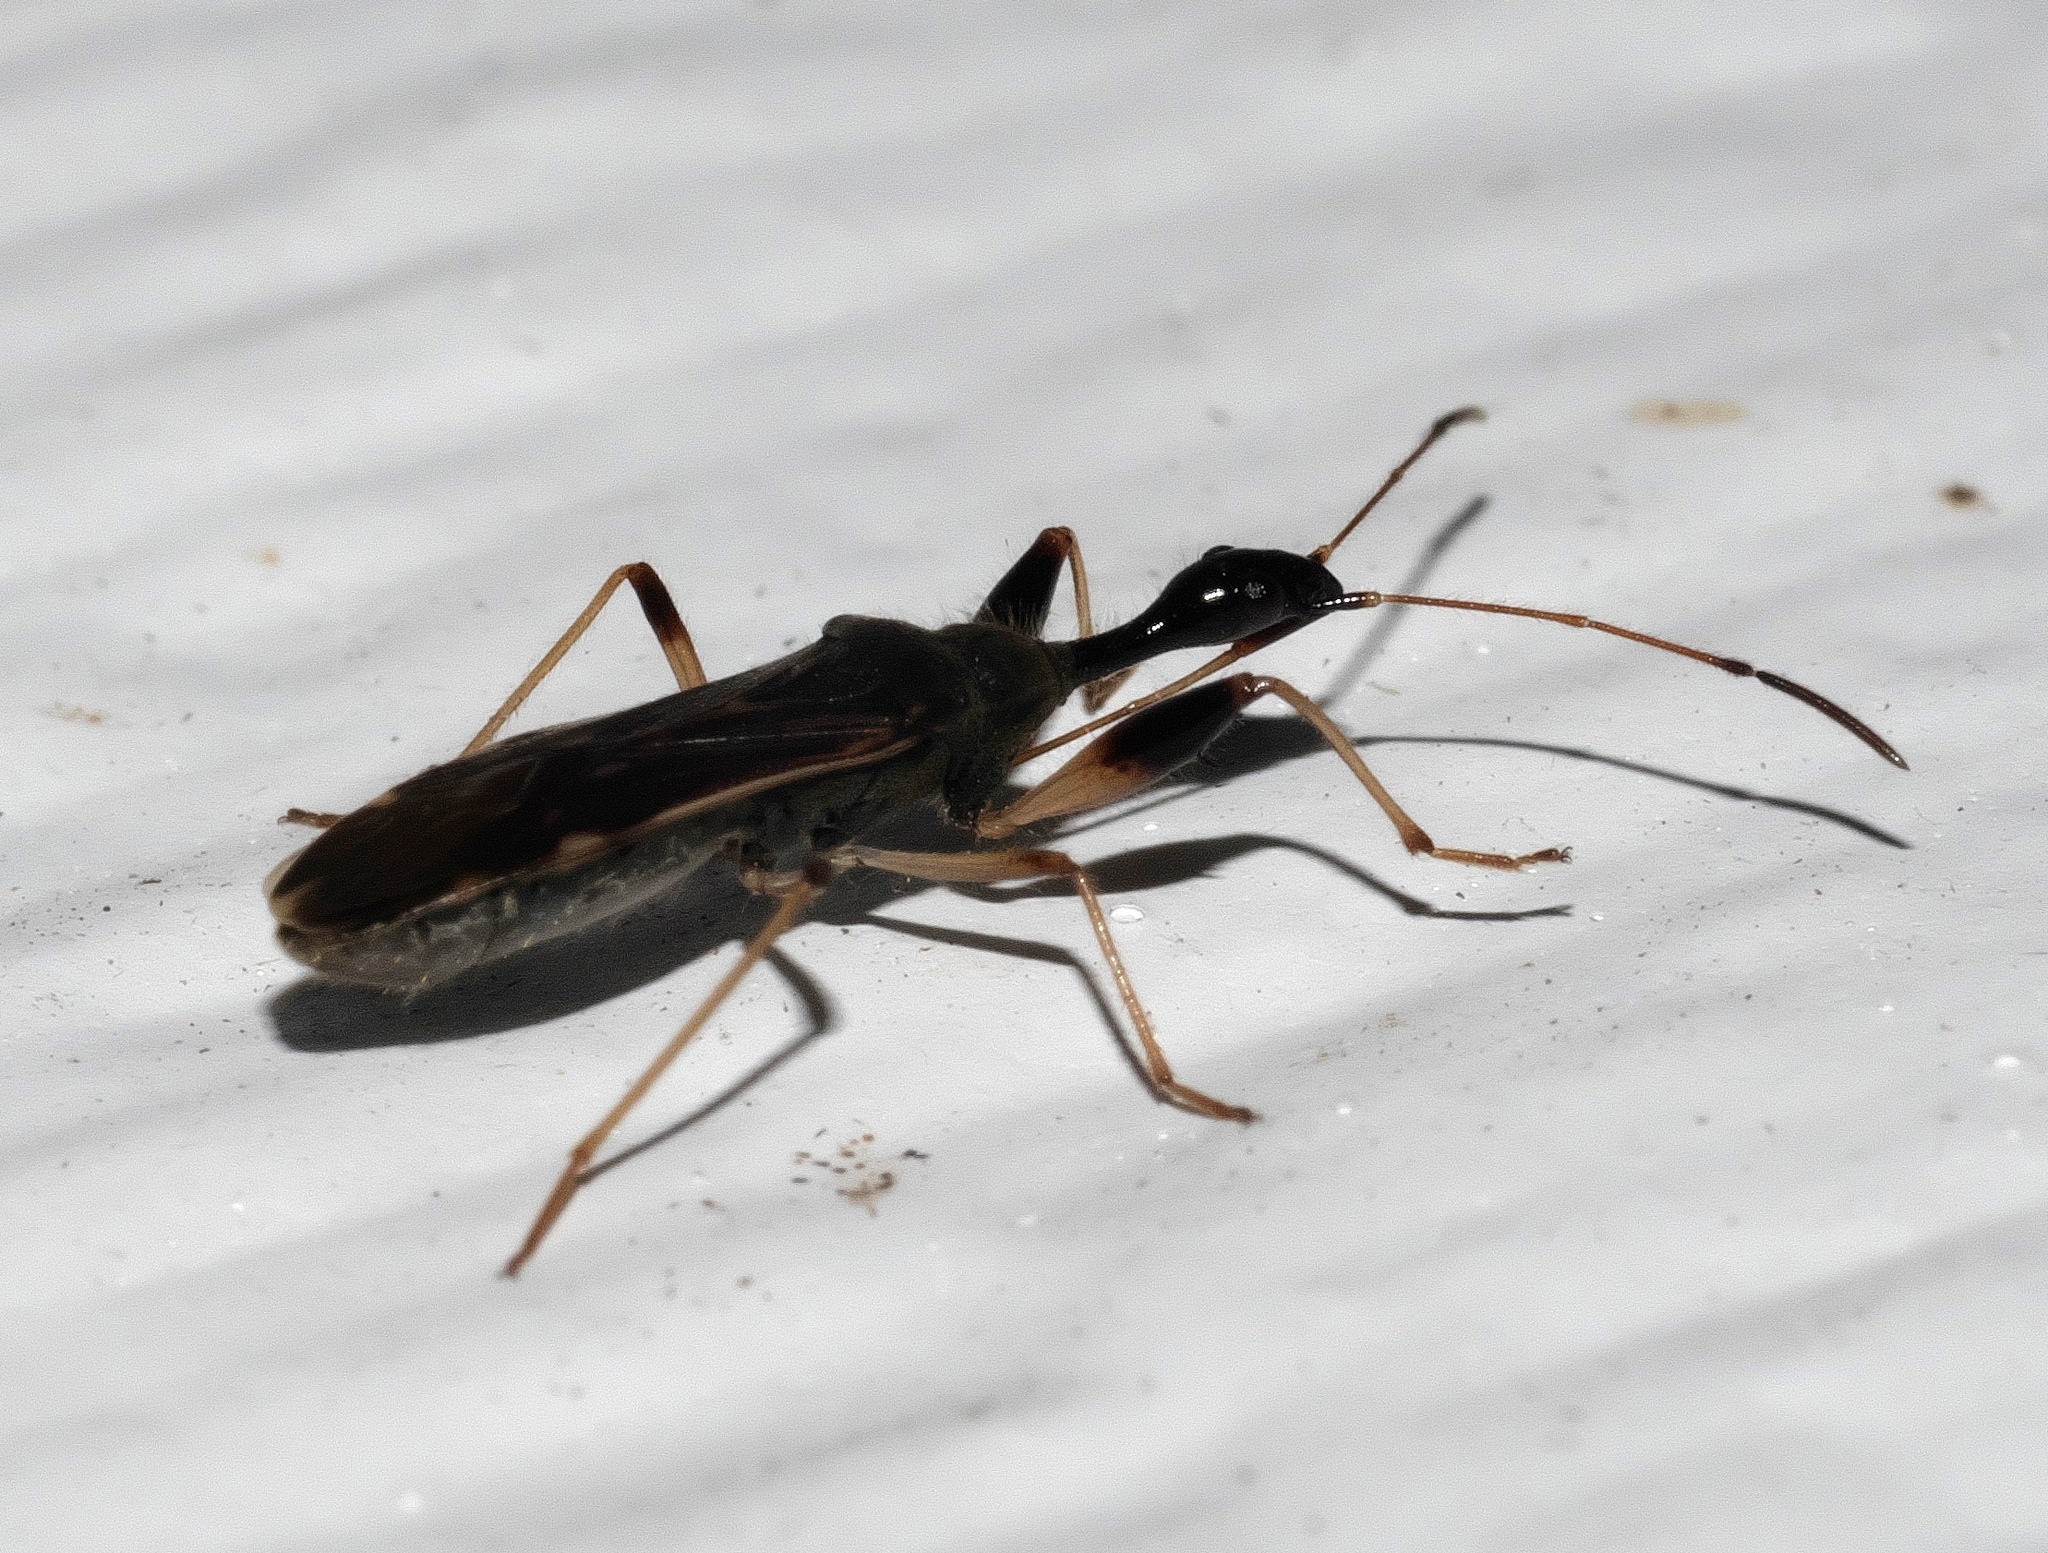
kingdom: Animalia
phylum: Arthropoda
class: Insecta
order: Hemiptera
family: Rhyparochromidae
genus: Myodocha
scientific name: Myodocha serripes
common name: Long-necked seed bug
